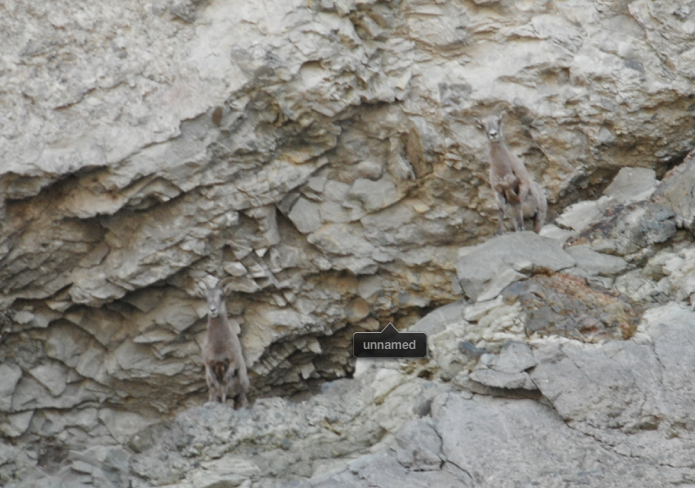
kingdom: Animalia
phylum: Chordata
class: Mammalia
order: Artiodactyla
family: Bovidae
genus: Ovis
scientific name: Ovis canadensis
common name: Bighorn sheep
